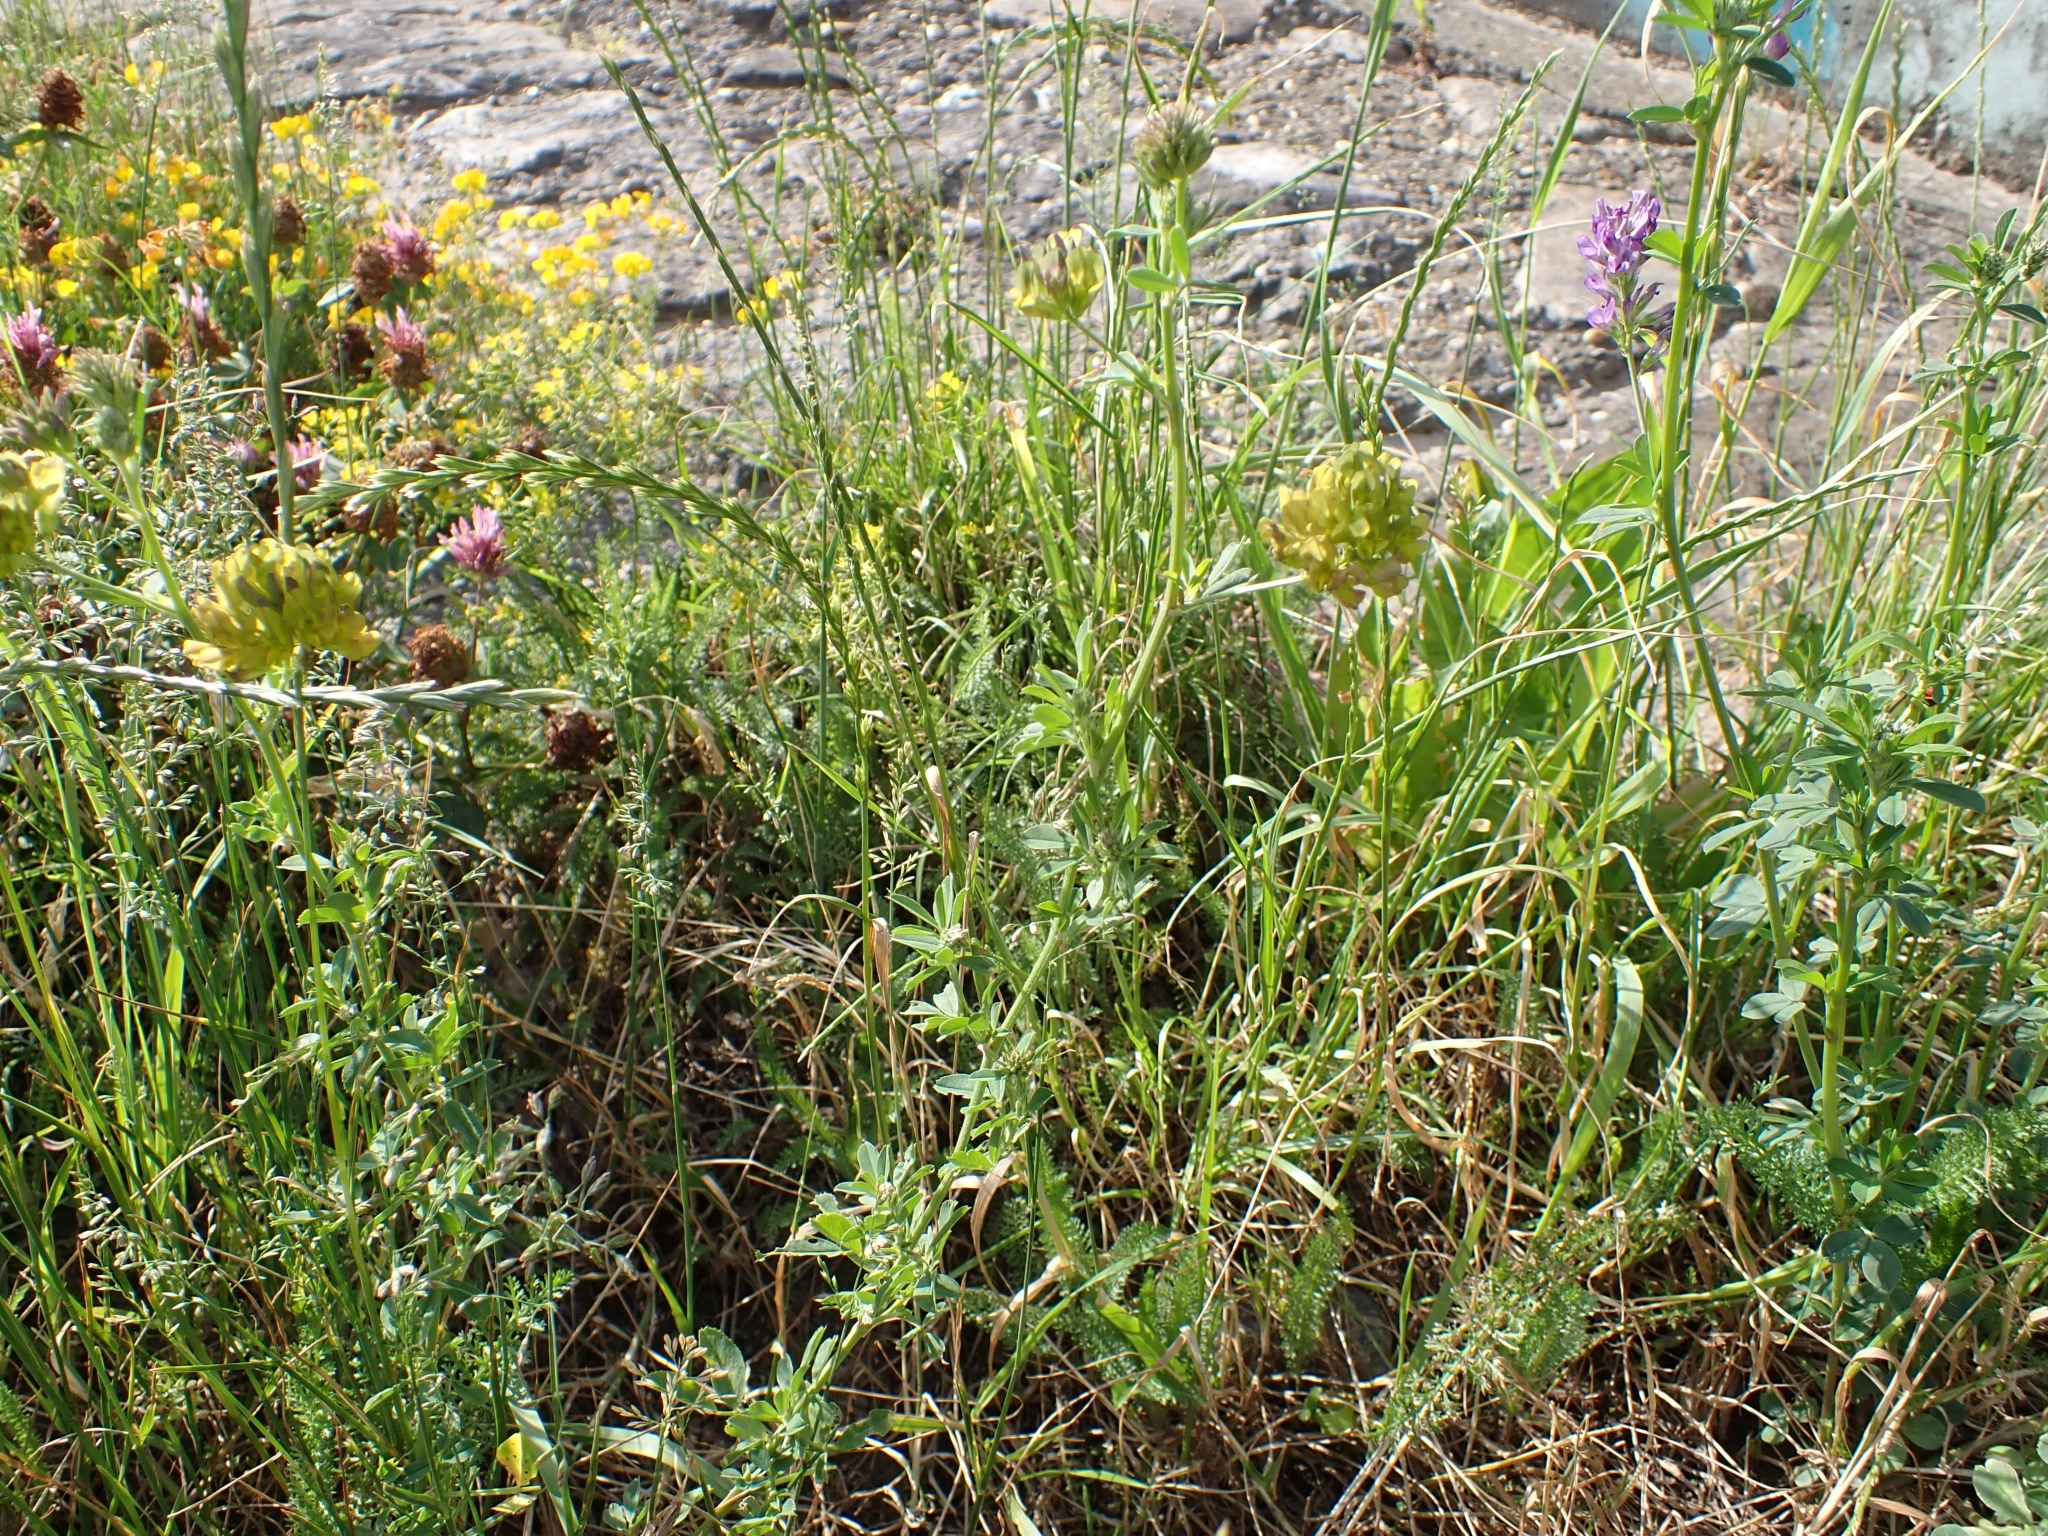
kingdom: Plantae
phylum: Tracheophyta
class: Magnoliopsida
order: Fabales
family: Fabaceae
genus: Medicago
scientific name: Medicago falcata
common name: Sickle medick
